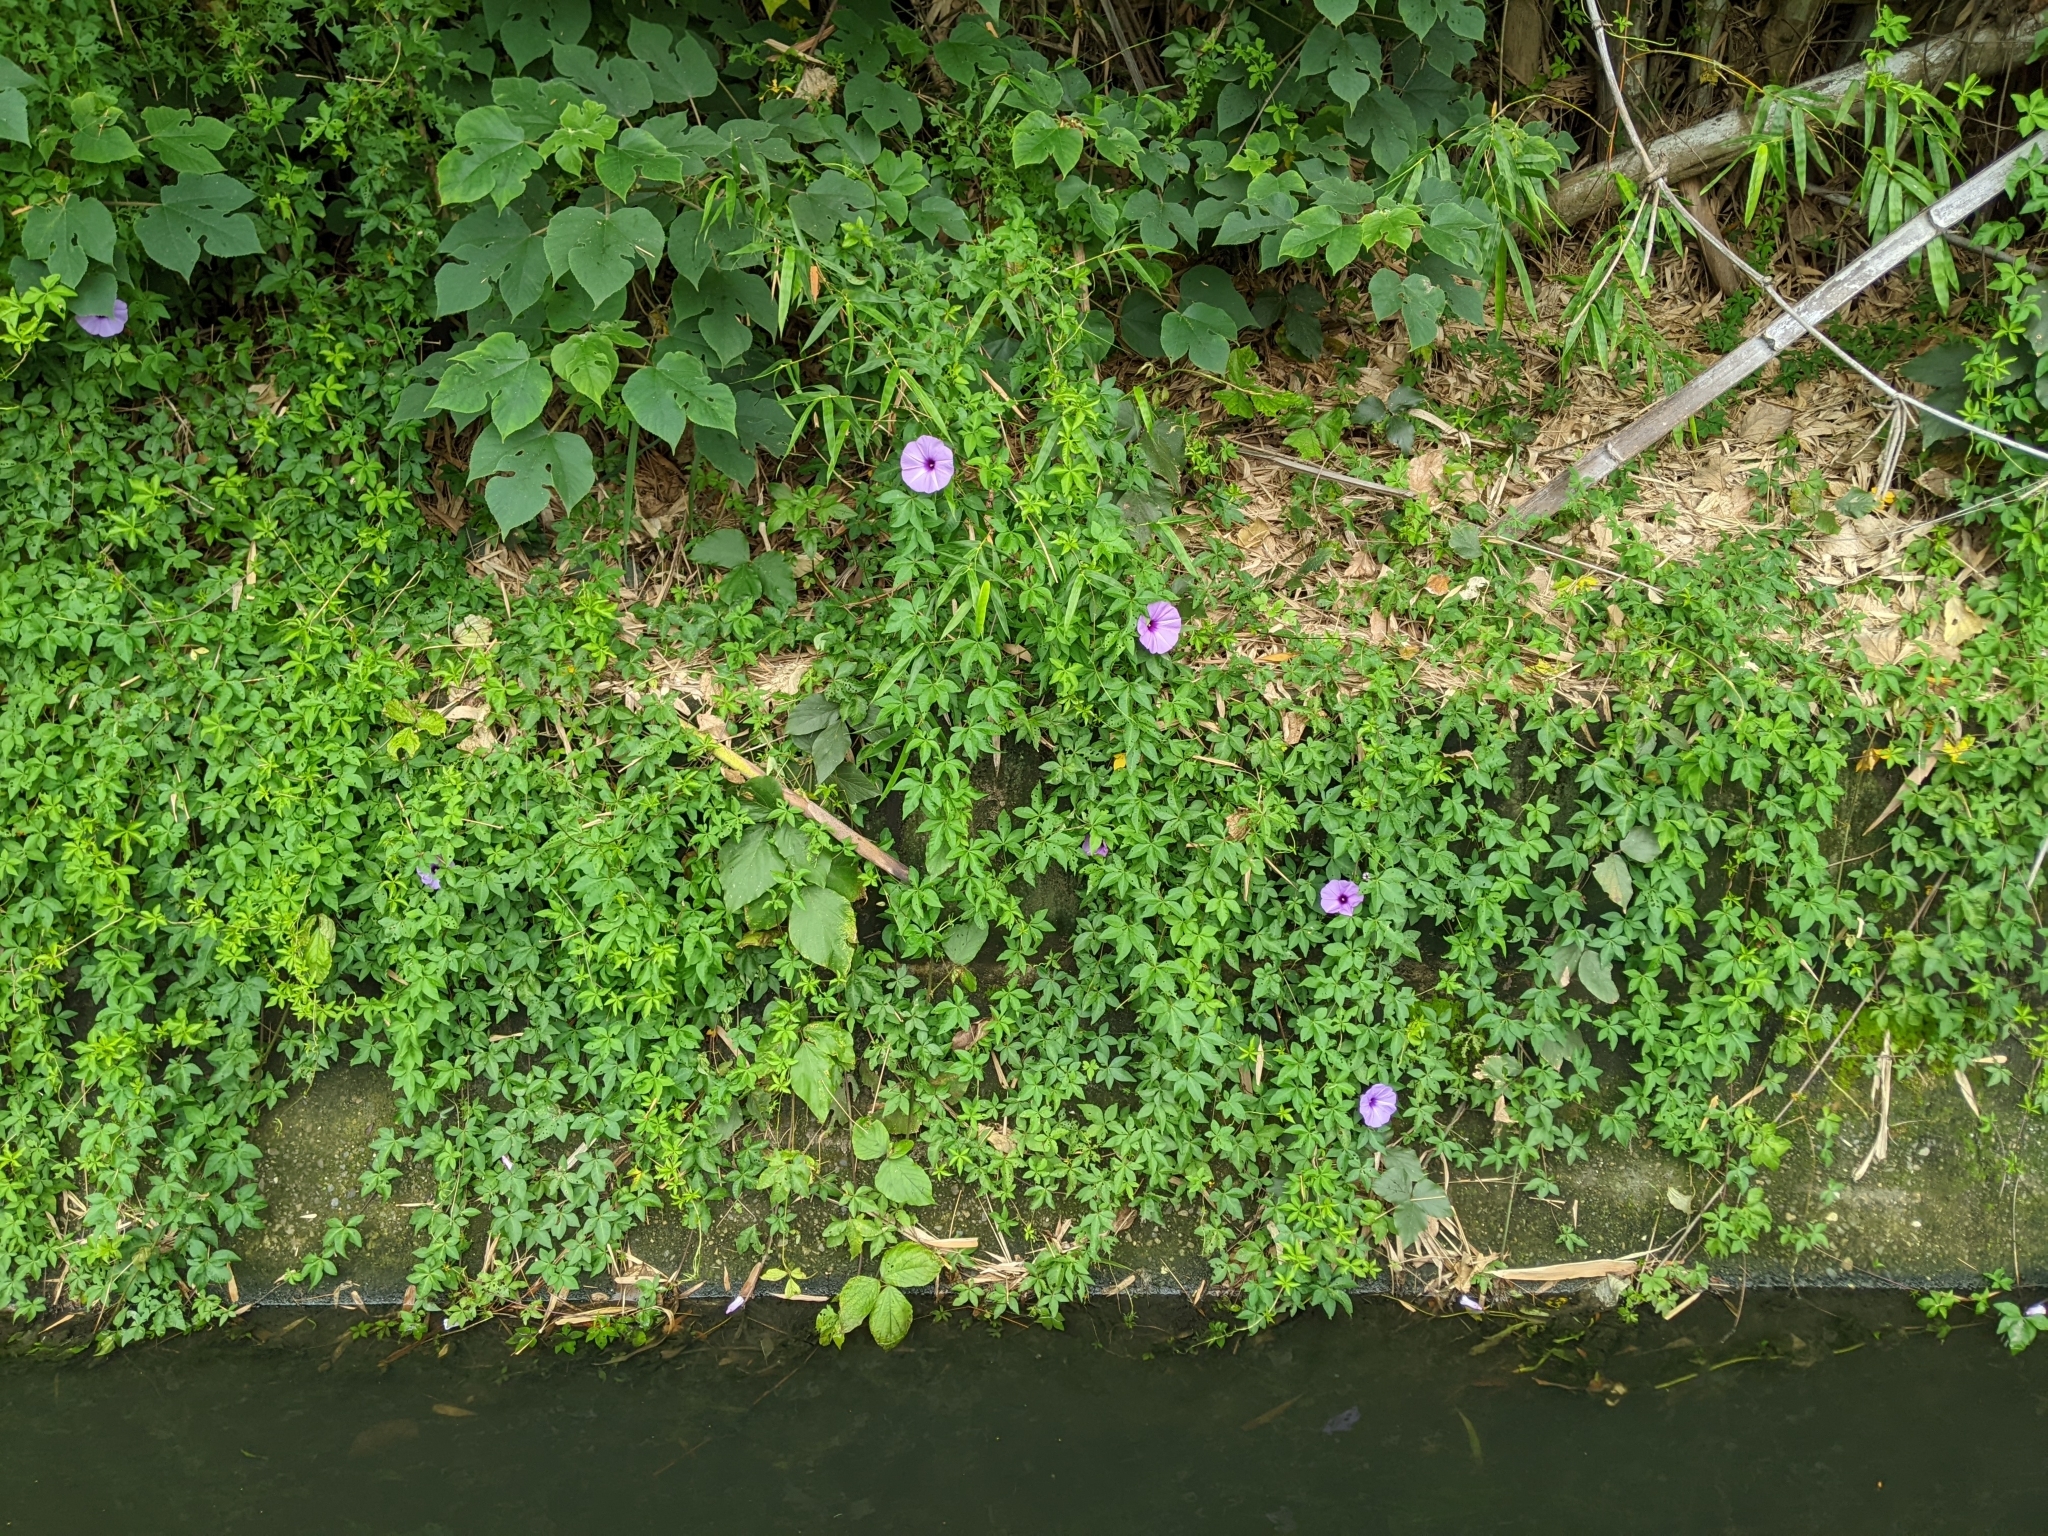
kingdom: Plantae
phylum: Tracheophyta
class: Magnoliopsida
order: Solanales
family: Convolvulaceae
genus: Ipomoea
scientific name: Ipomoea cairica
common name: Mile a minute vine
